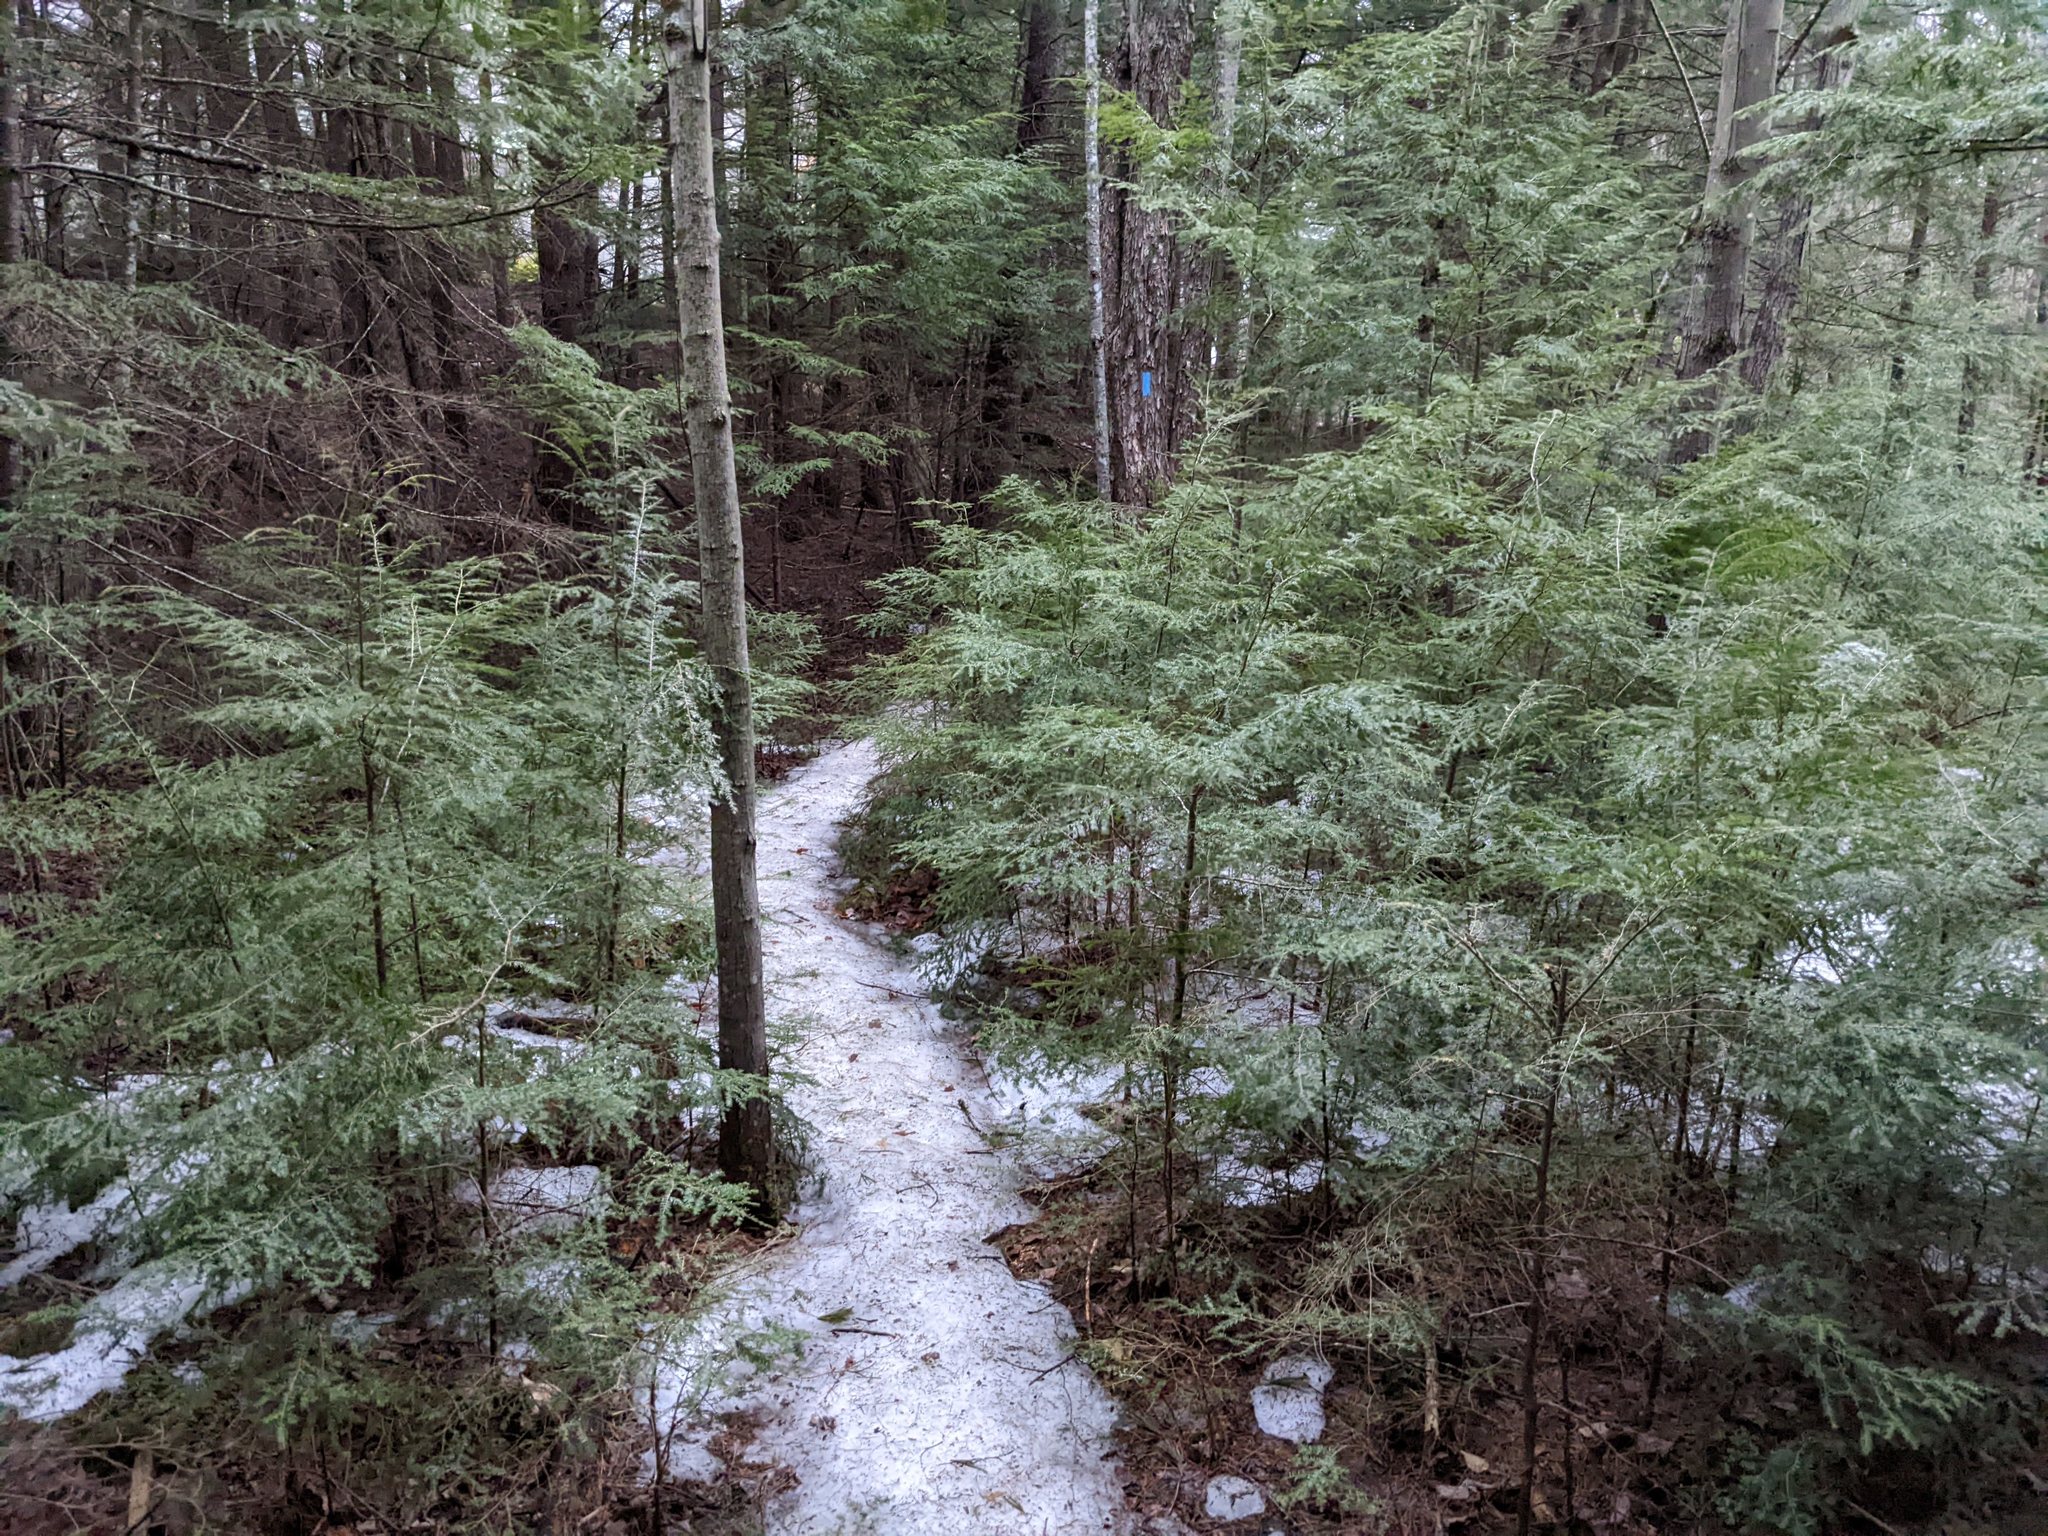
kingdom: Plantae
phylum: Tracheophyta
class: Pinopsida
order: Pinales
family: Pinaceae
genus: Tsuga
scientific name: Tsuga canadensis
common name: Eastern hemlock
